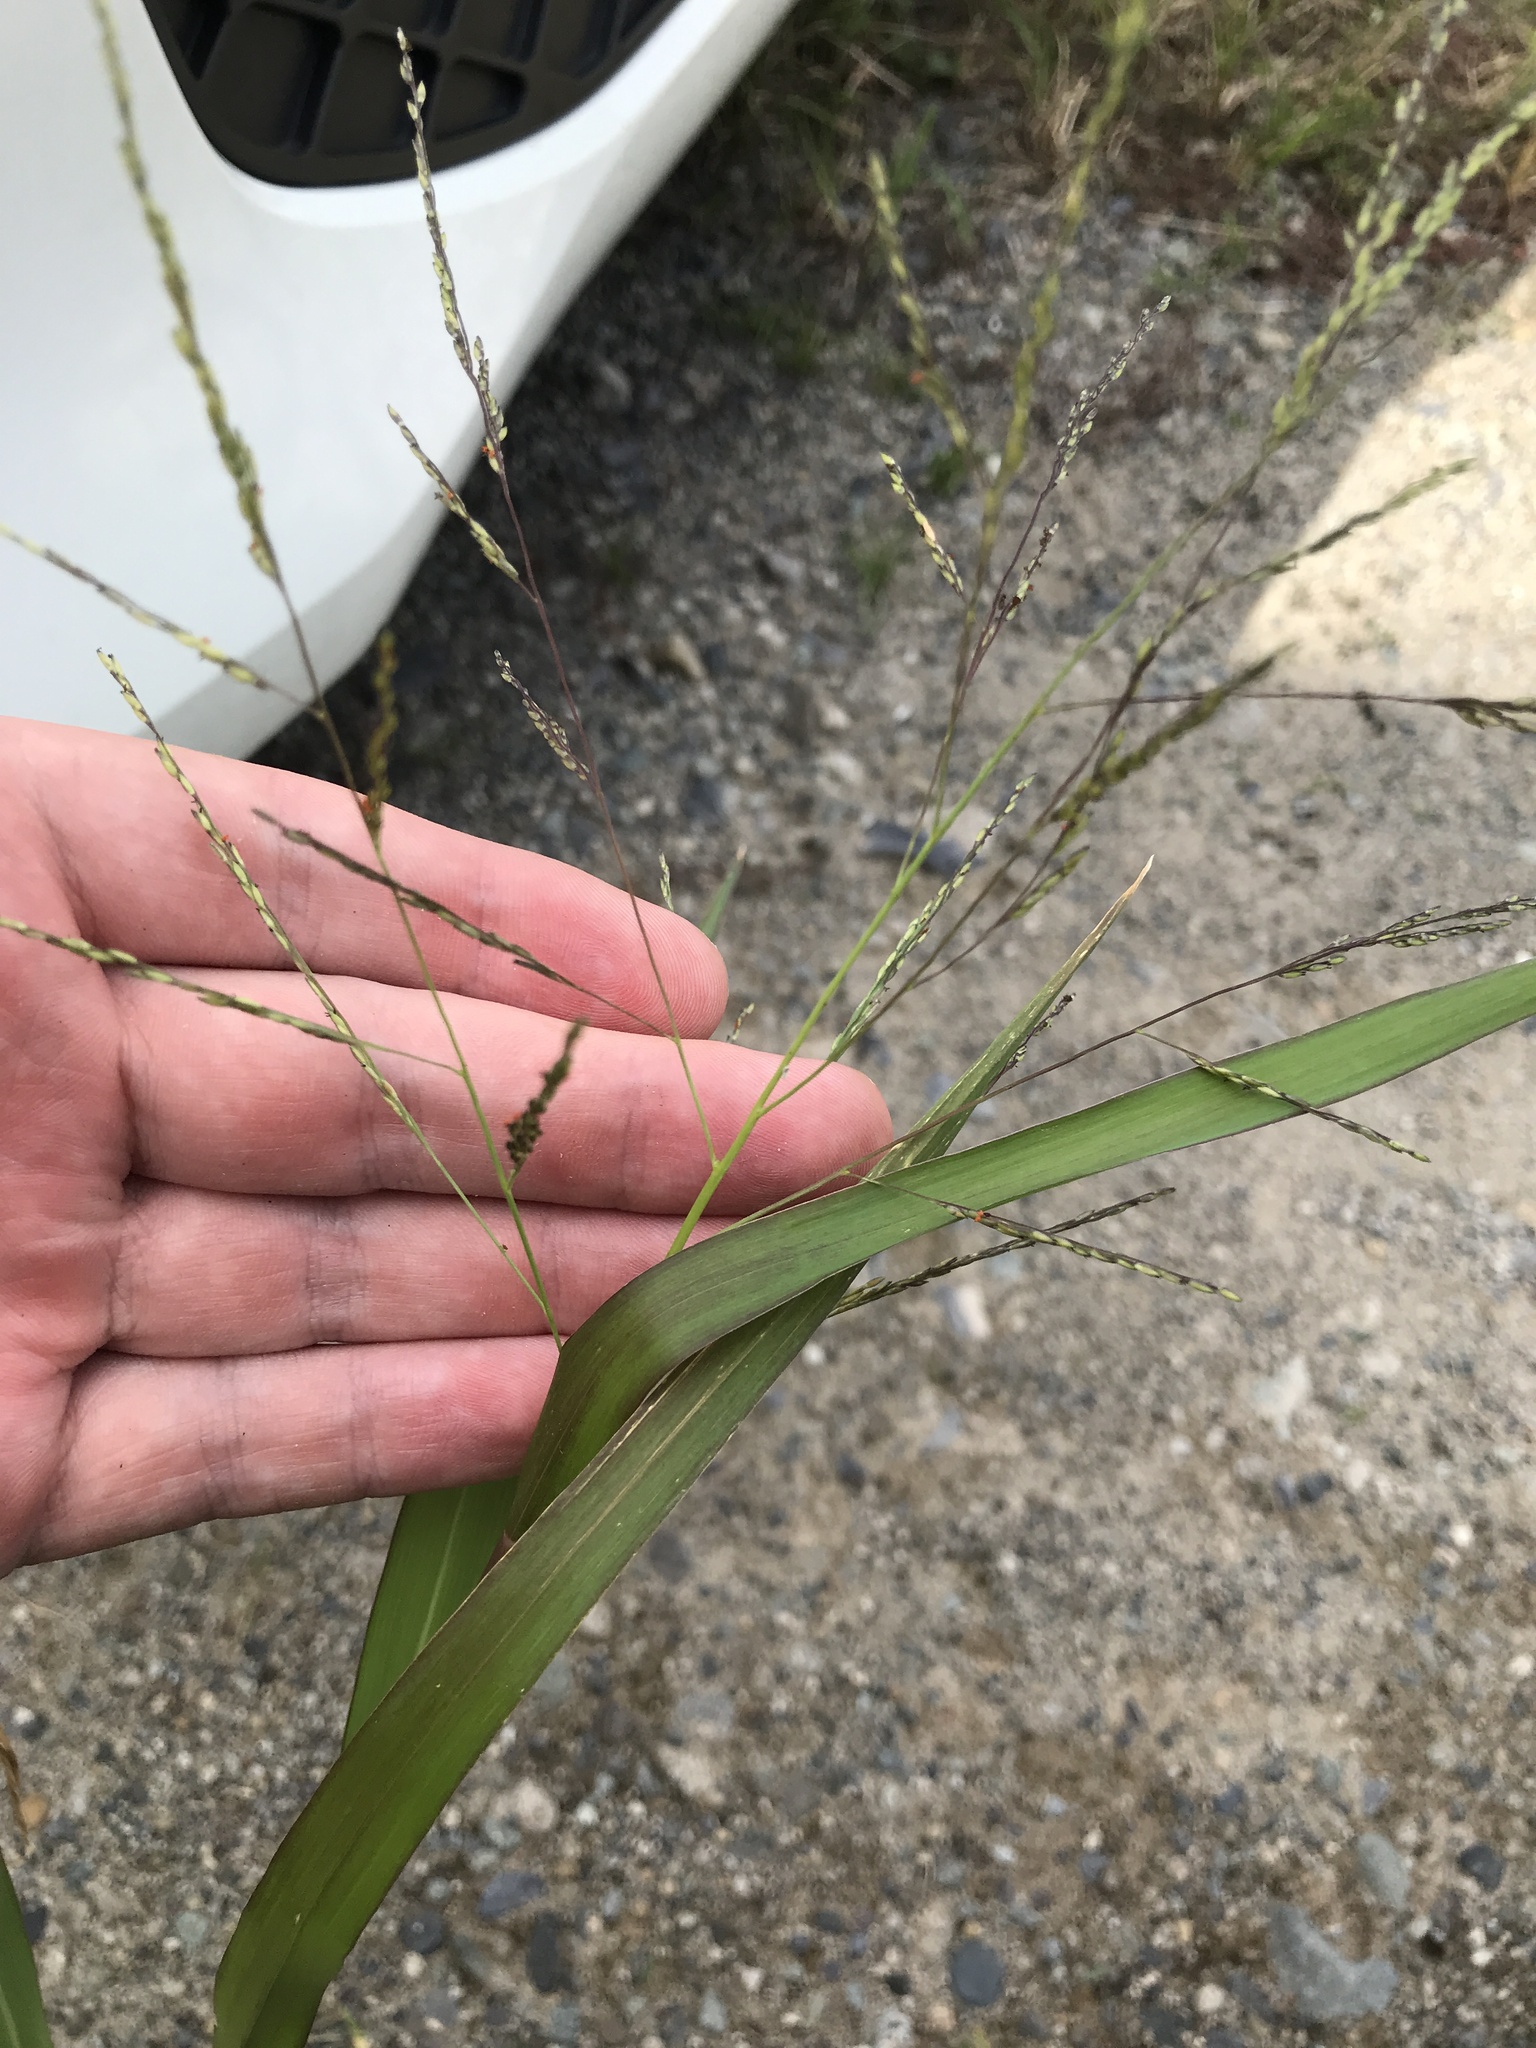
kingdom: Plantae
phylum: Tracheophyta
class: Liliopsida
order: Poales
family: Poaceae
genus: Panicum
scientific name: Panicum dichotomiflorum
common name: Autumn millet
